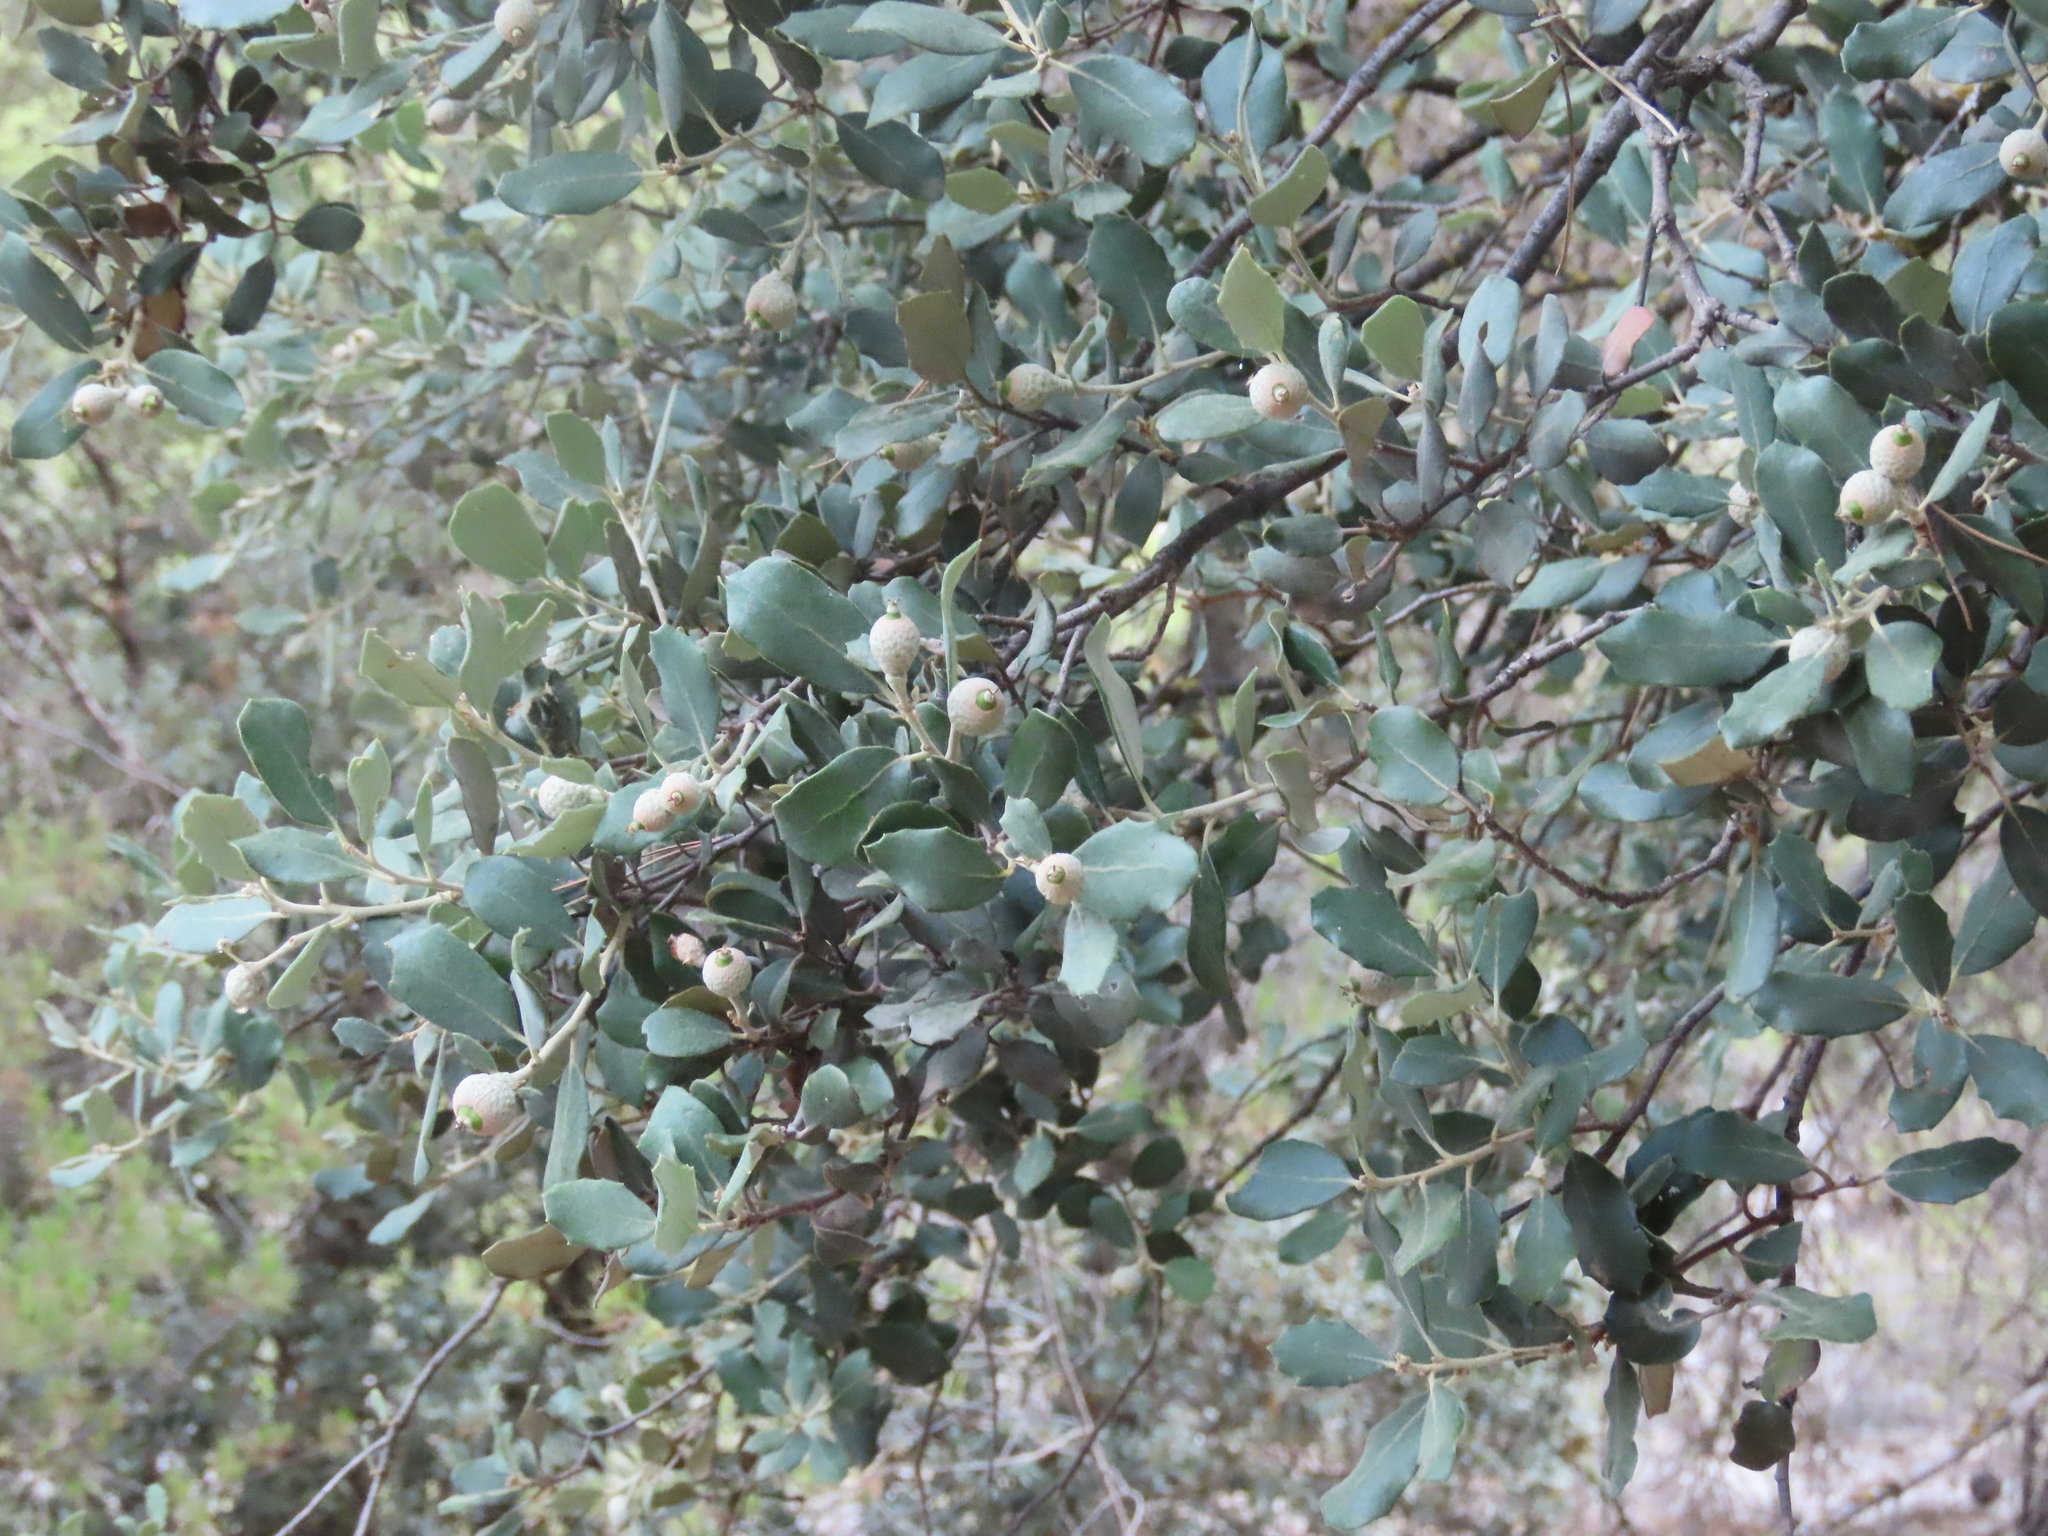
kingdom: Plantae
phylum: Tracheophyta
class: Magnoliopsida
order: Fagales
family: Fagaceae
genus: Quercus
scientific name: Quercus rotundifolia
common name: Holm oak
